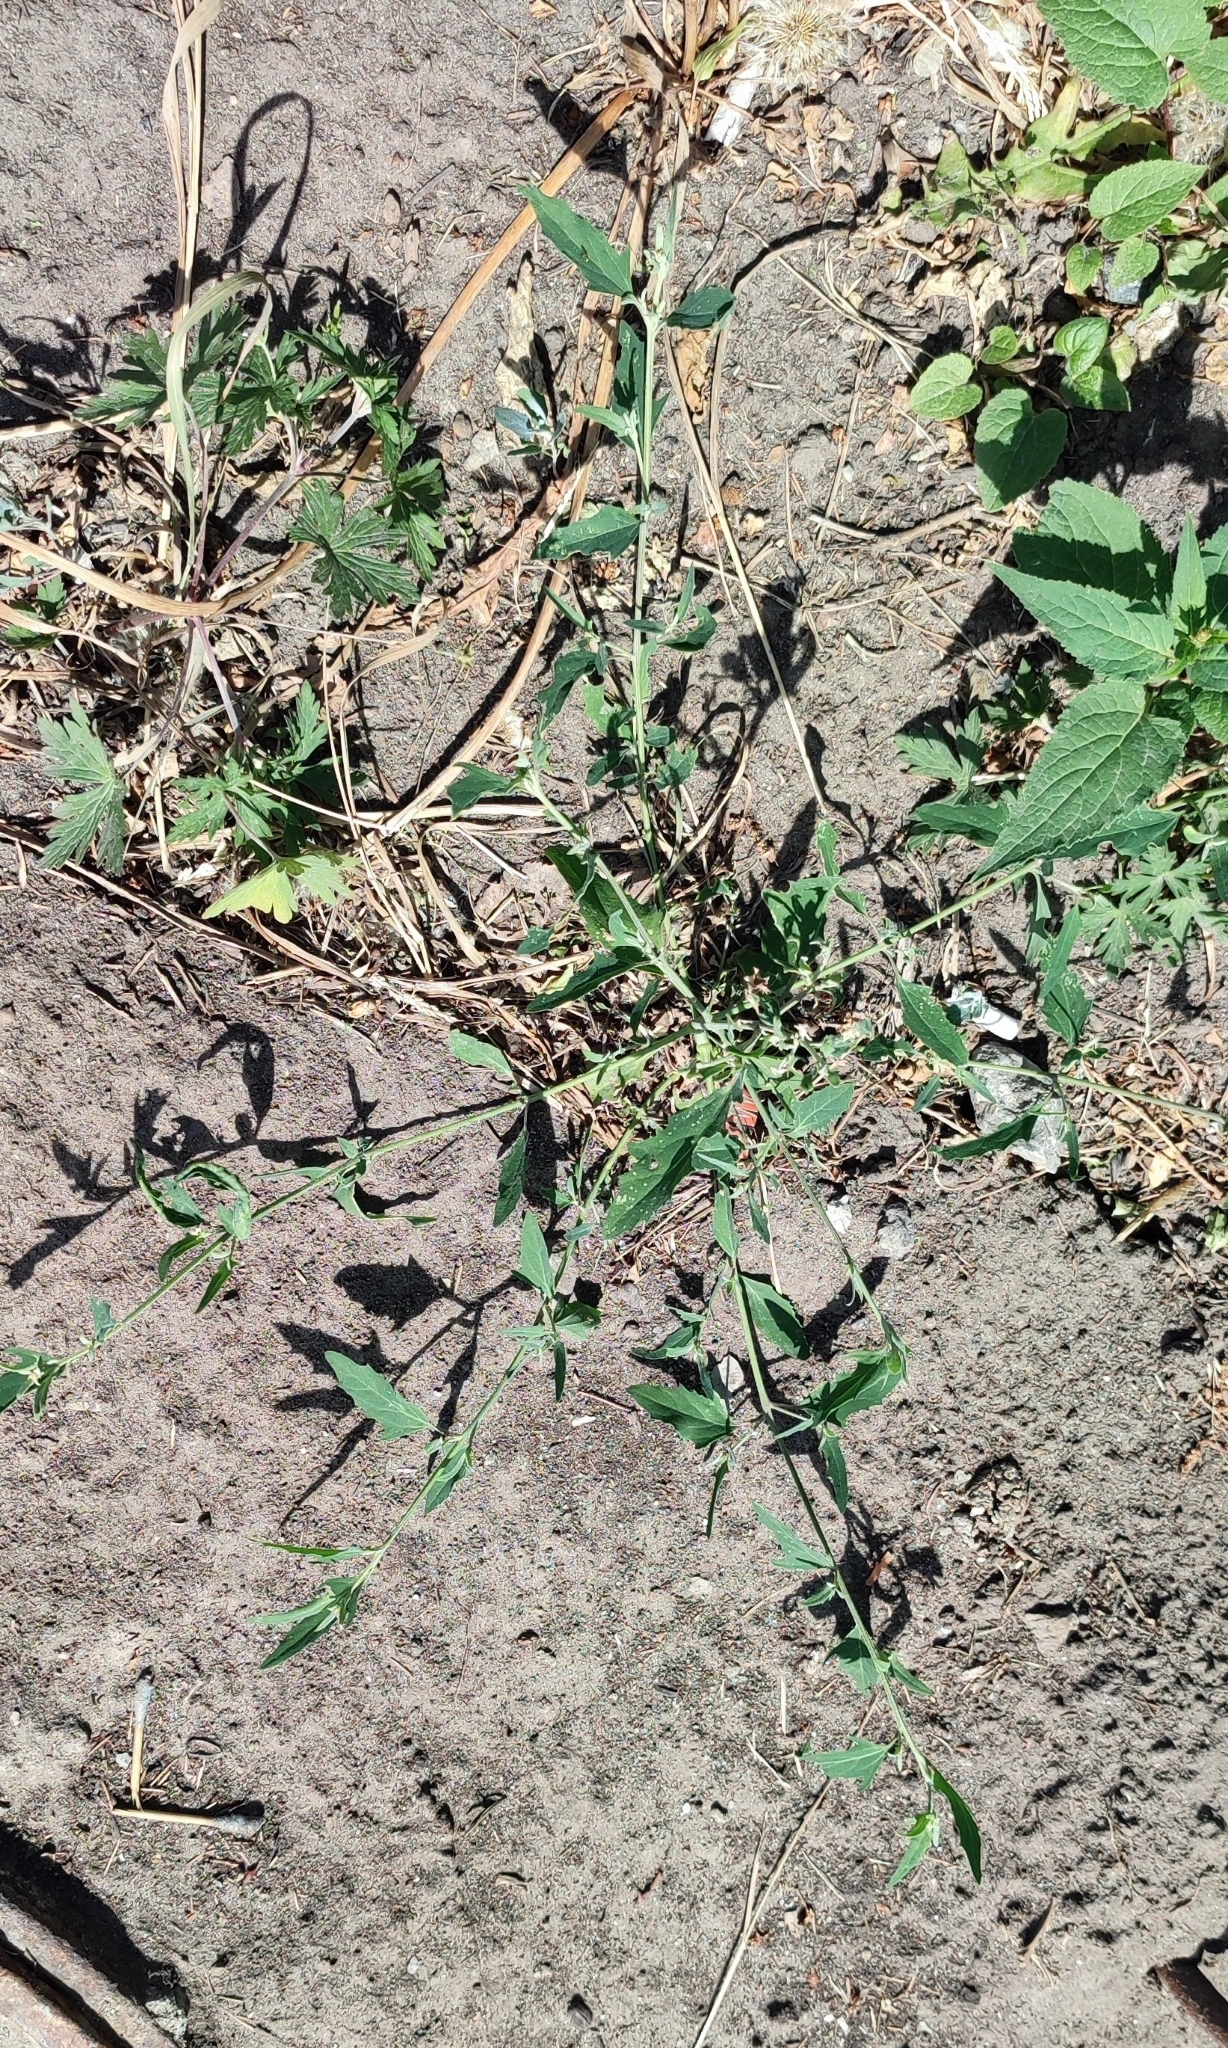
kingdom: Plantae
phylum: Tracheophyta
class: Magnoliopsida
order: Caryophyllales
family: Amaranthaceae
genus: Atriplex
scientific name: Atriplex patula
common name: Common orache
